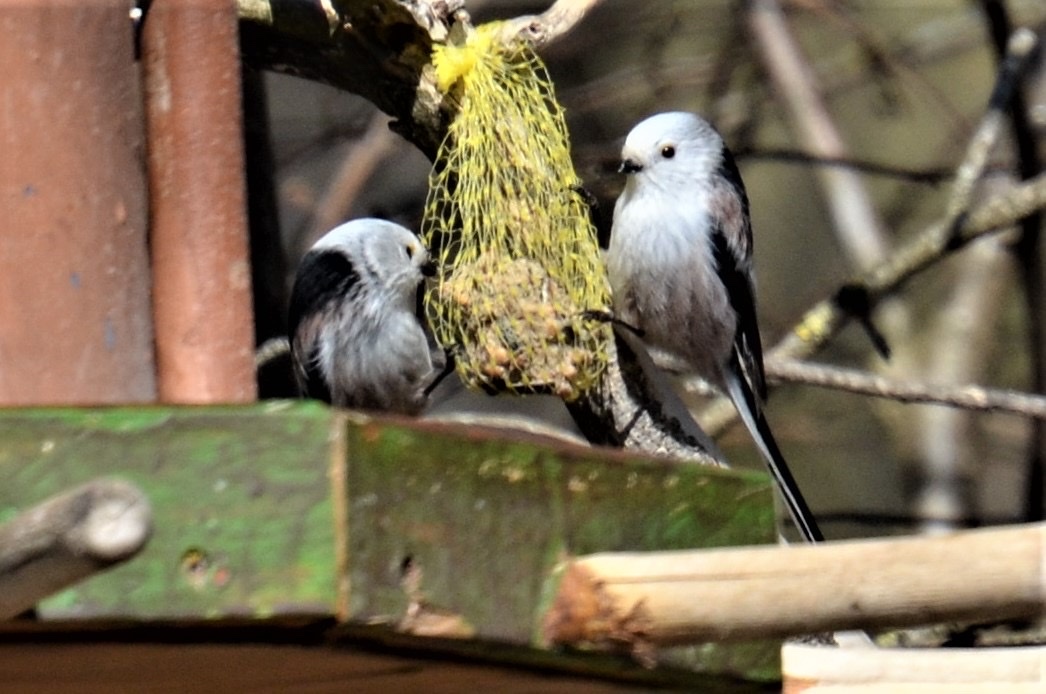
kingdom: Animalia
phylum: Chordata
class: Aves
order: Passeriformes
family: Aegithalidae
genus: Aegithalos
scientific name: Aegithalos caudatus
